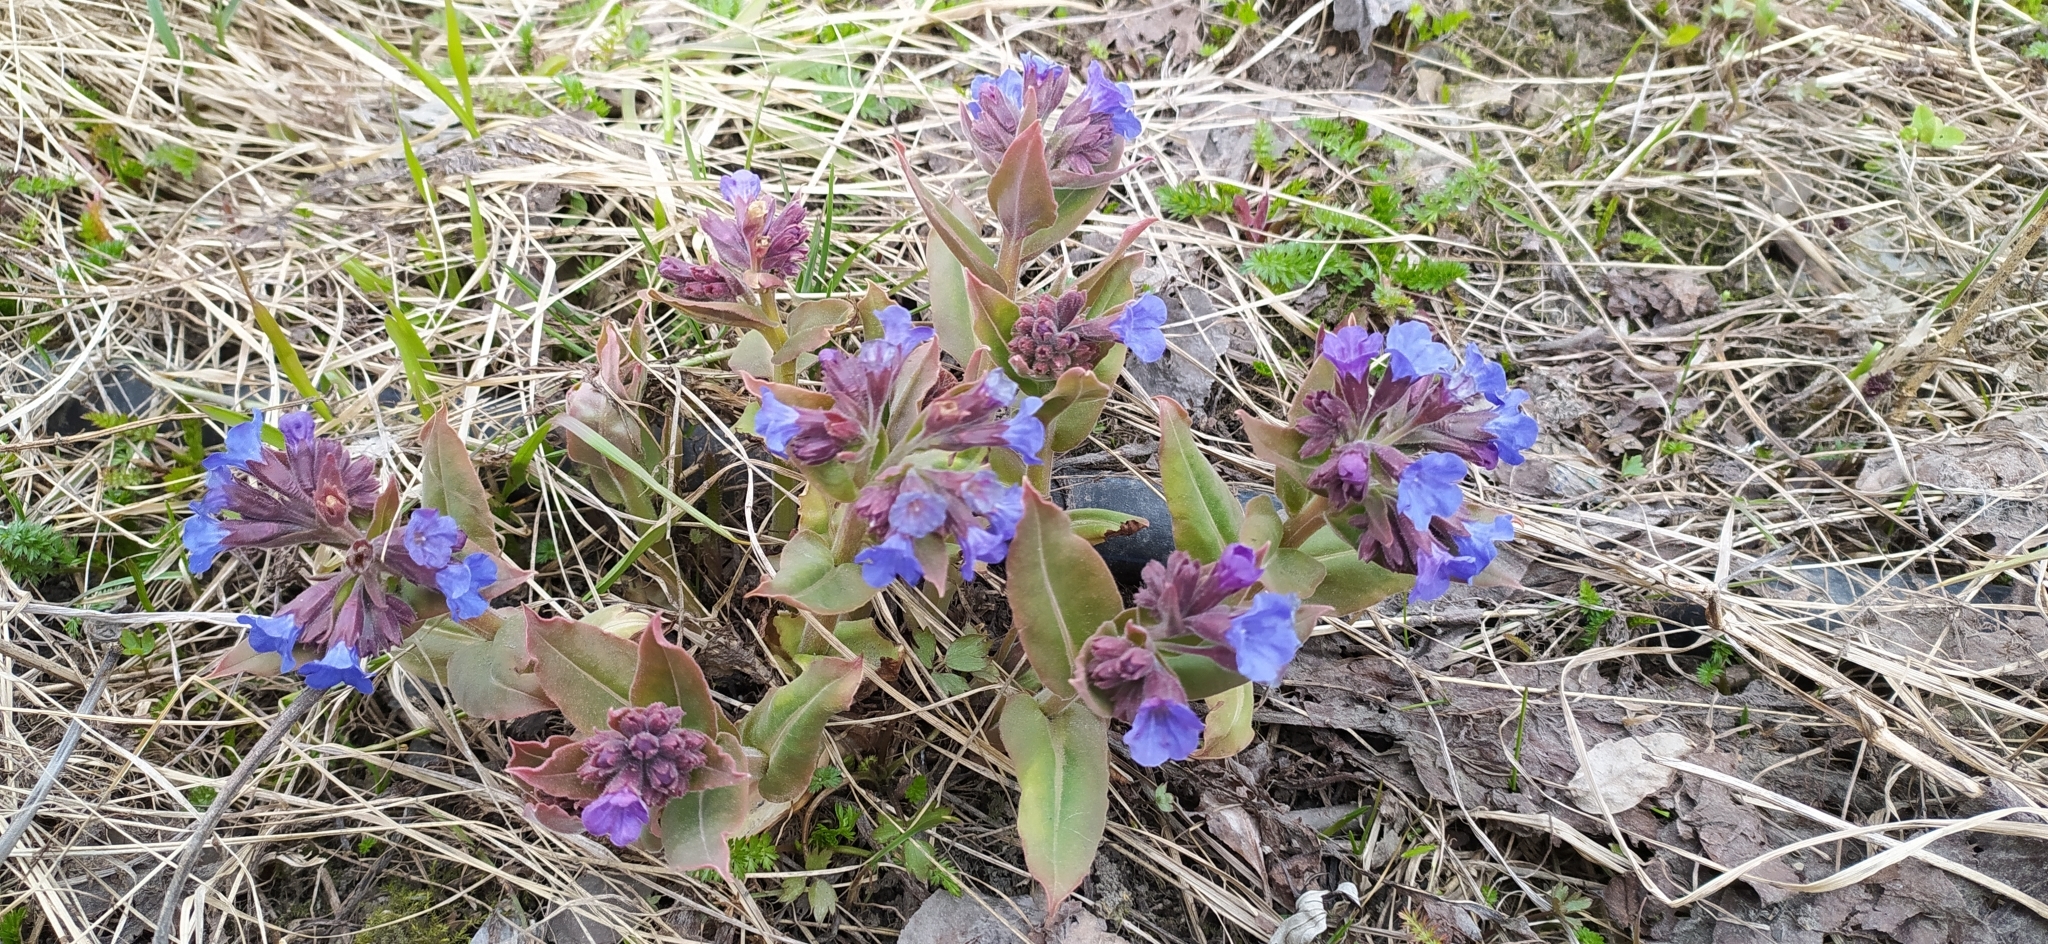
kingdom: Plantae
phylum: Tracheophyta
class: Magnoliopsida
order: Boraginales
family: Boraginaceae
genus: Pulmonaria
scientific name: Pulmonaria mollis
